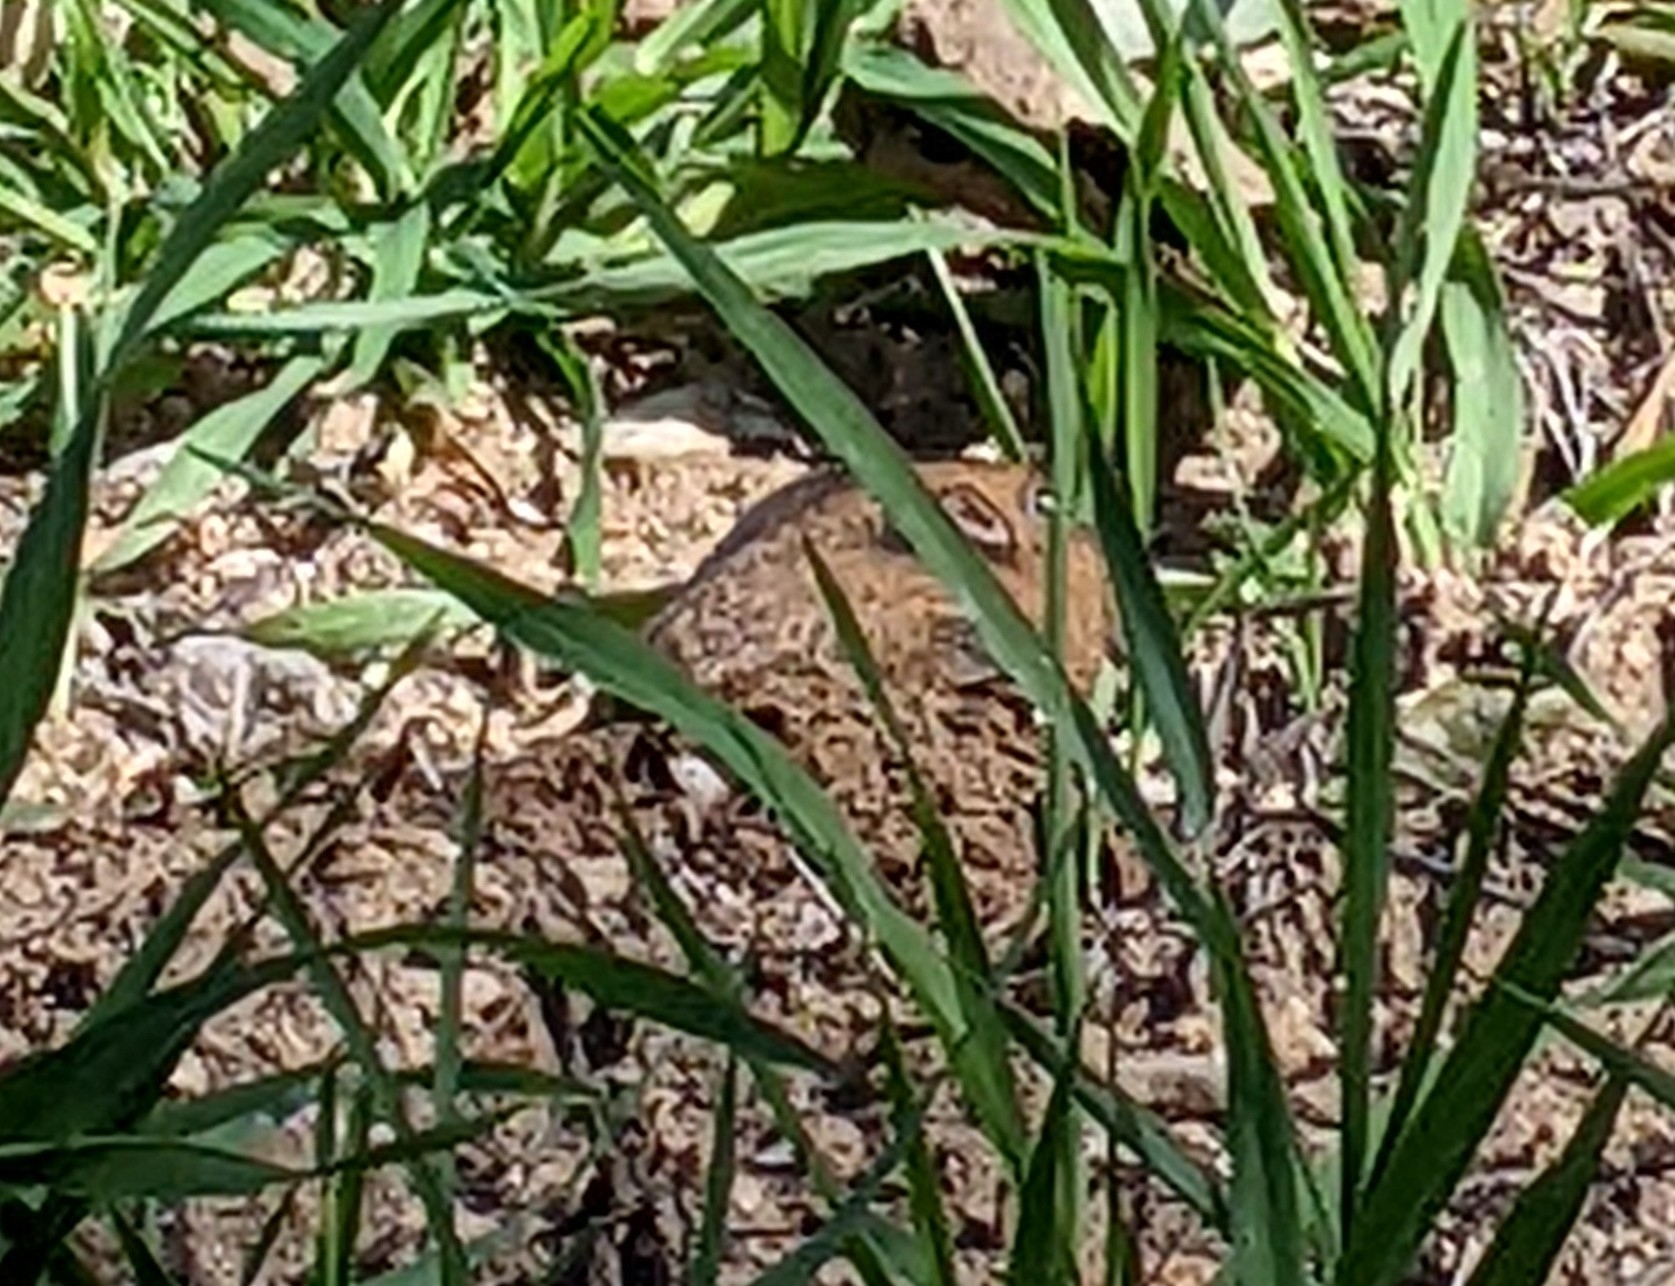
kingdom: Animalia
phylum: Chordata
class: Mammalia
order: Rodentia
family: Geomyidae
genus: Thomomys
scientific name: Thomomys bottae
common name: Botta's pocket gopher
